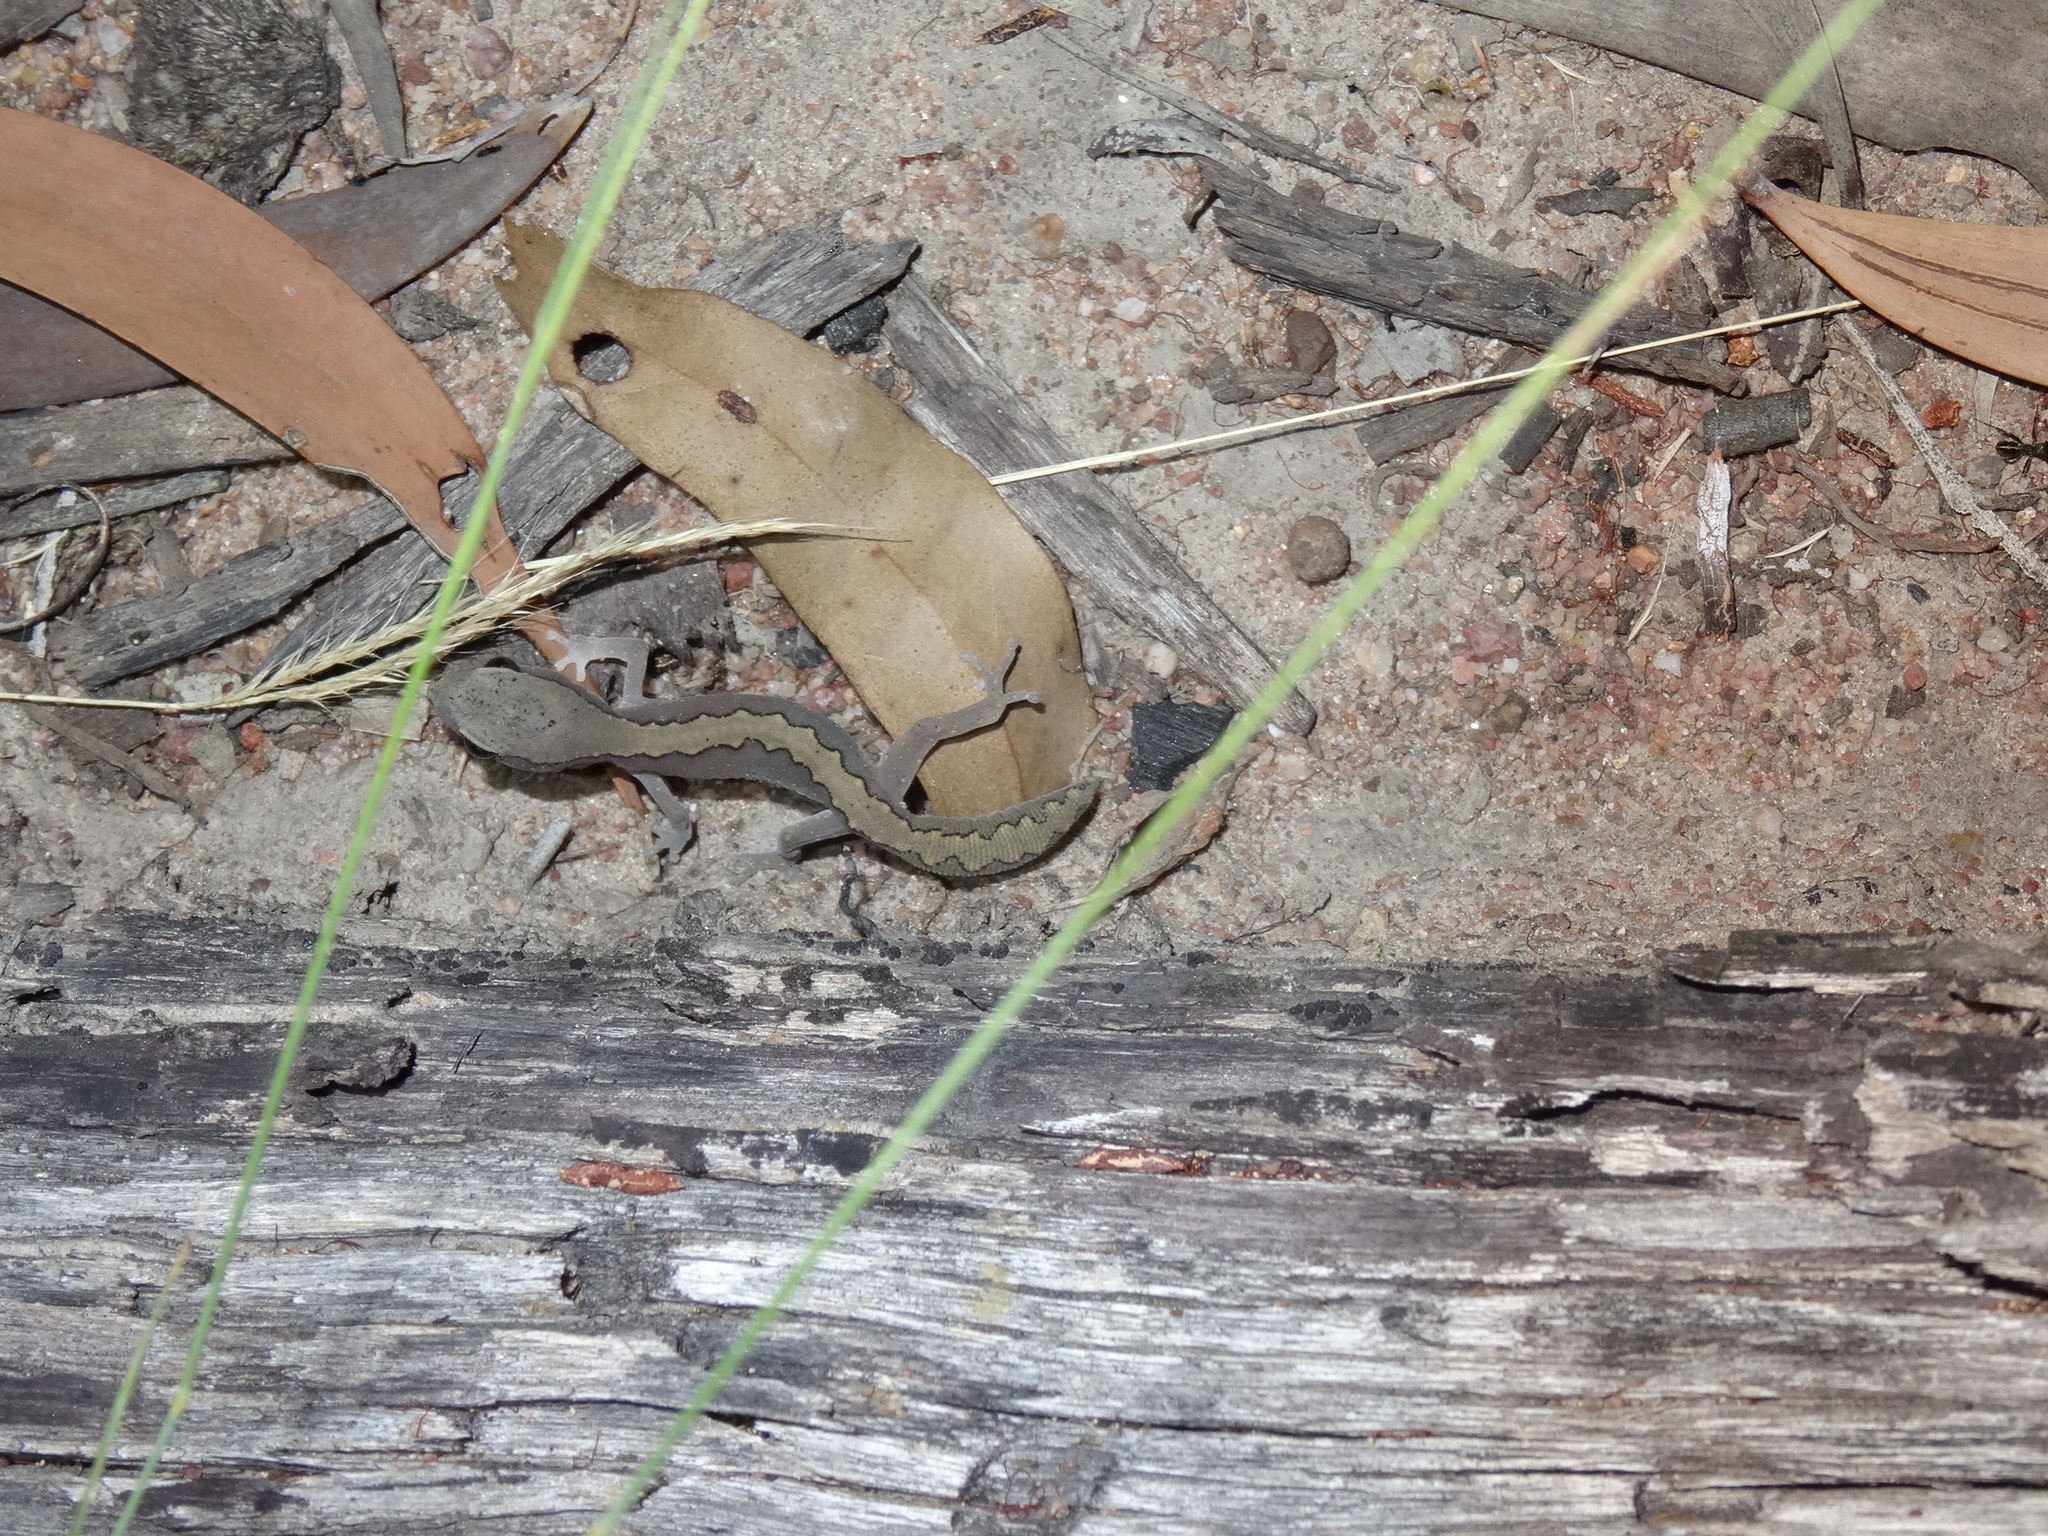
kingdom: Animalia
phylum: Chordata
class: Squamata
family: Diplodactylidae
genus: Diplodactylus
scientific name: Diplodactylus vittatus
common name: Eastern stone gecko
